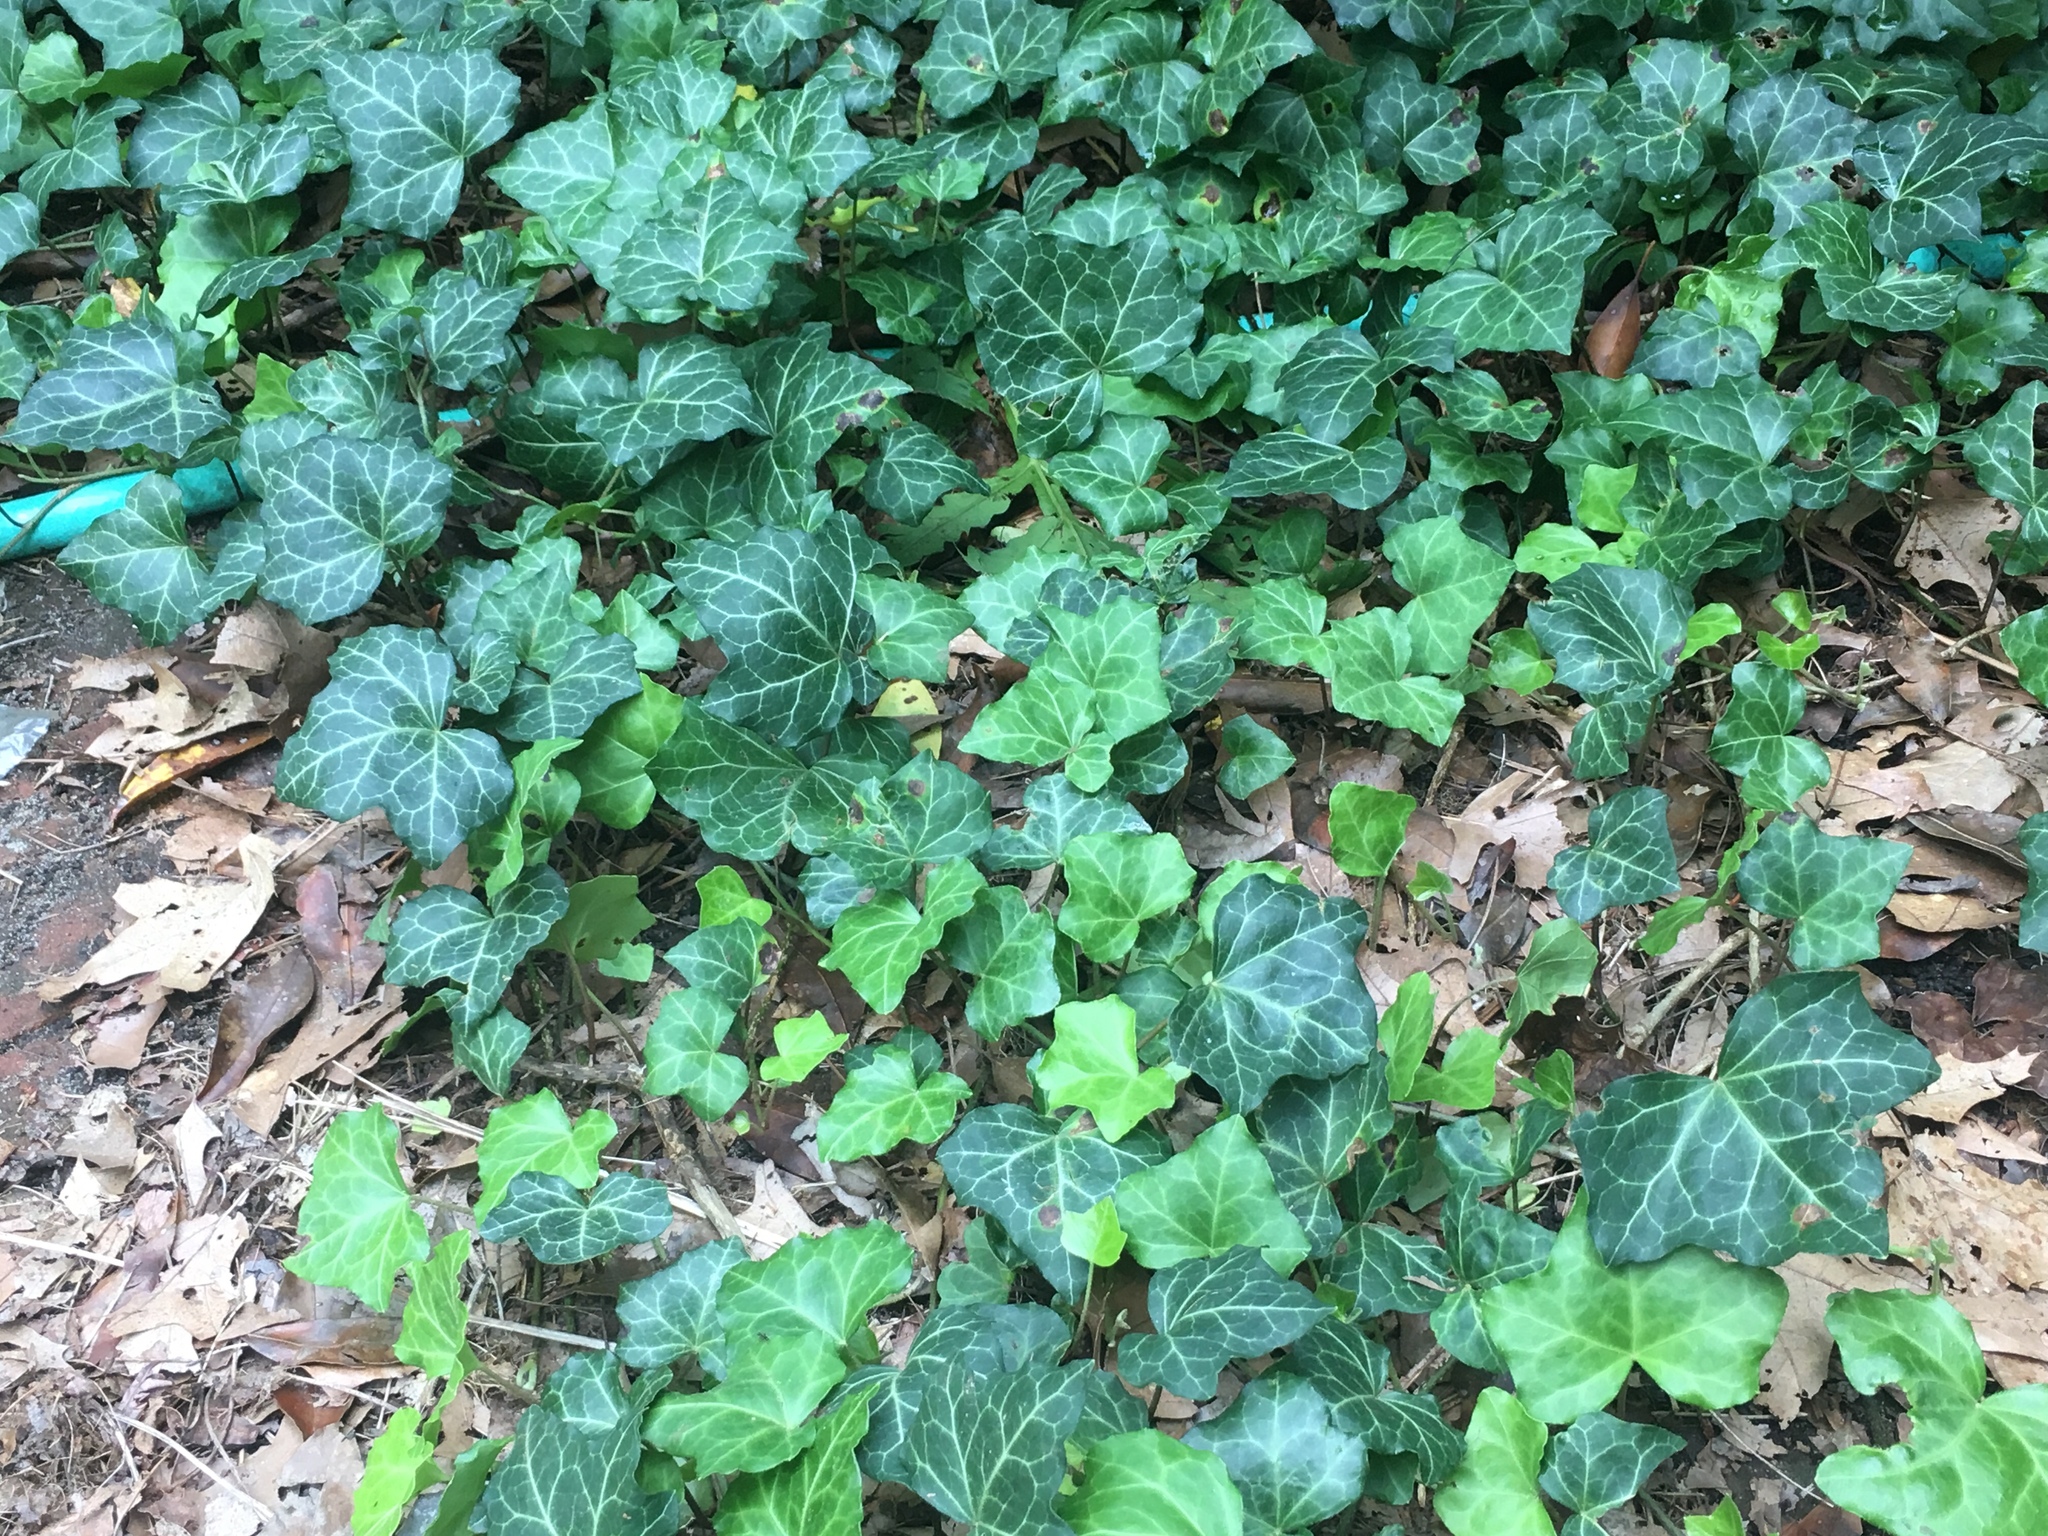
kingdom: Plantae
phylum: Tracheophyta
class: Magnoliopsida
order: Apiales
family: Araliaceae
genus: Hedera
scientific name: Hedera helix
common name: Ivy
